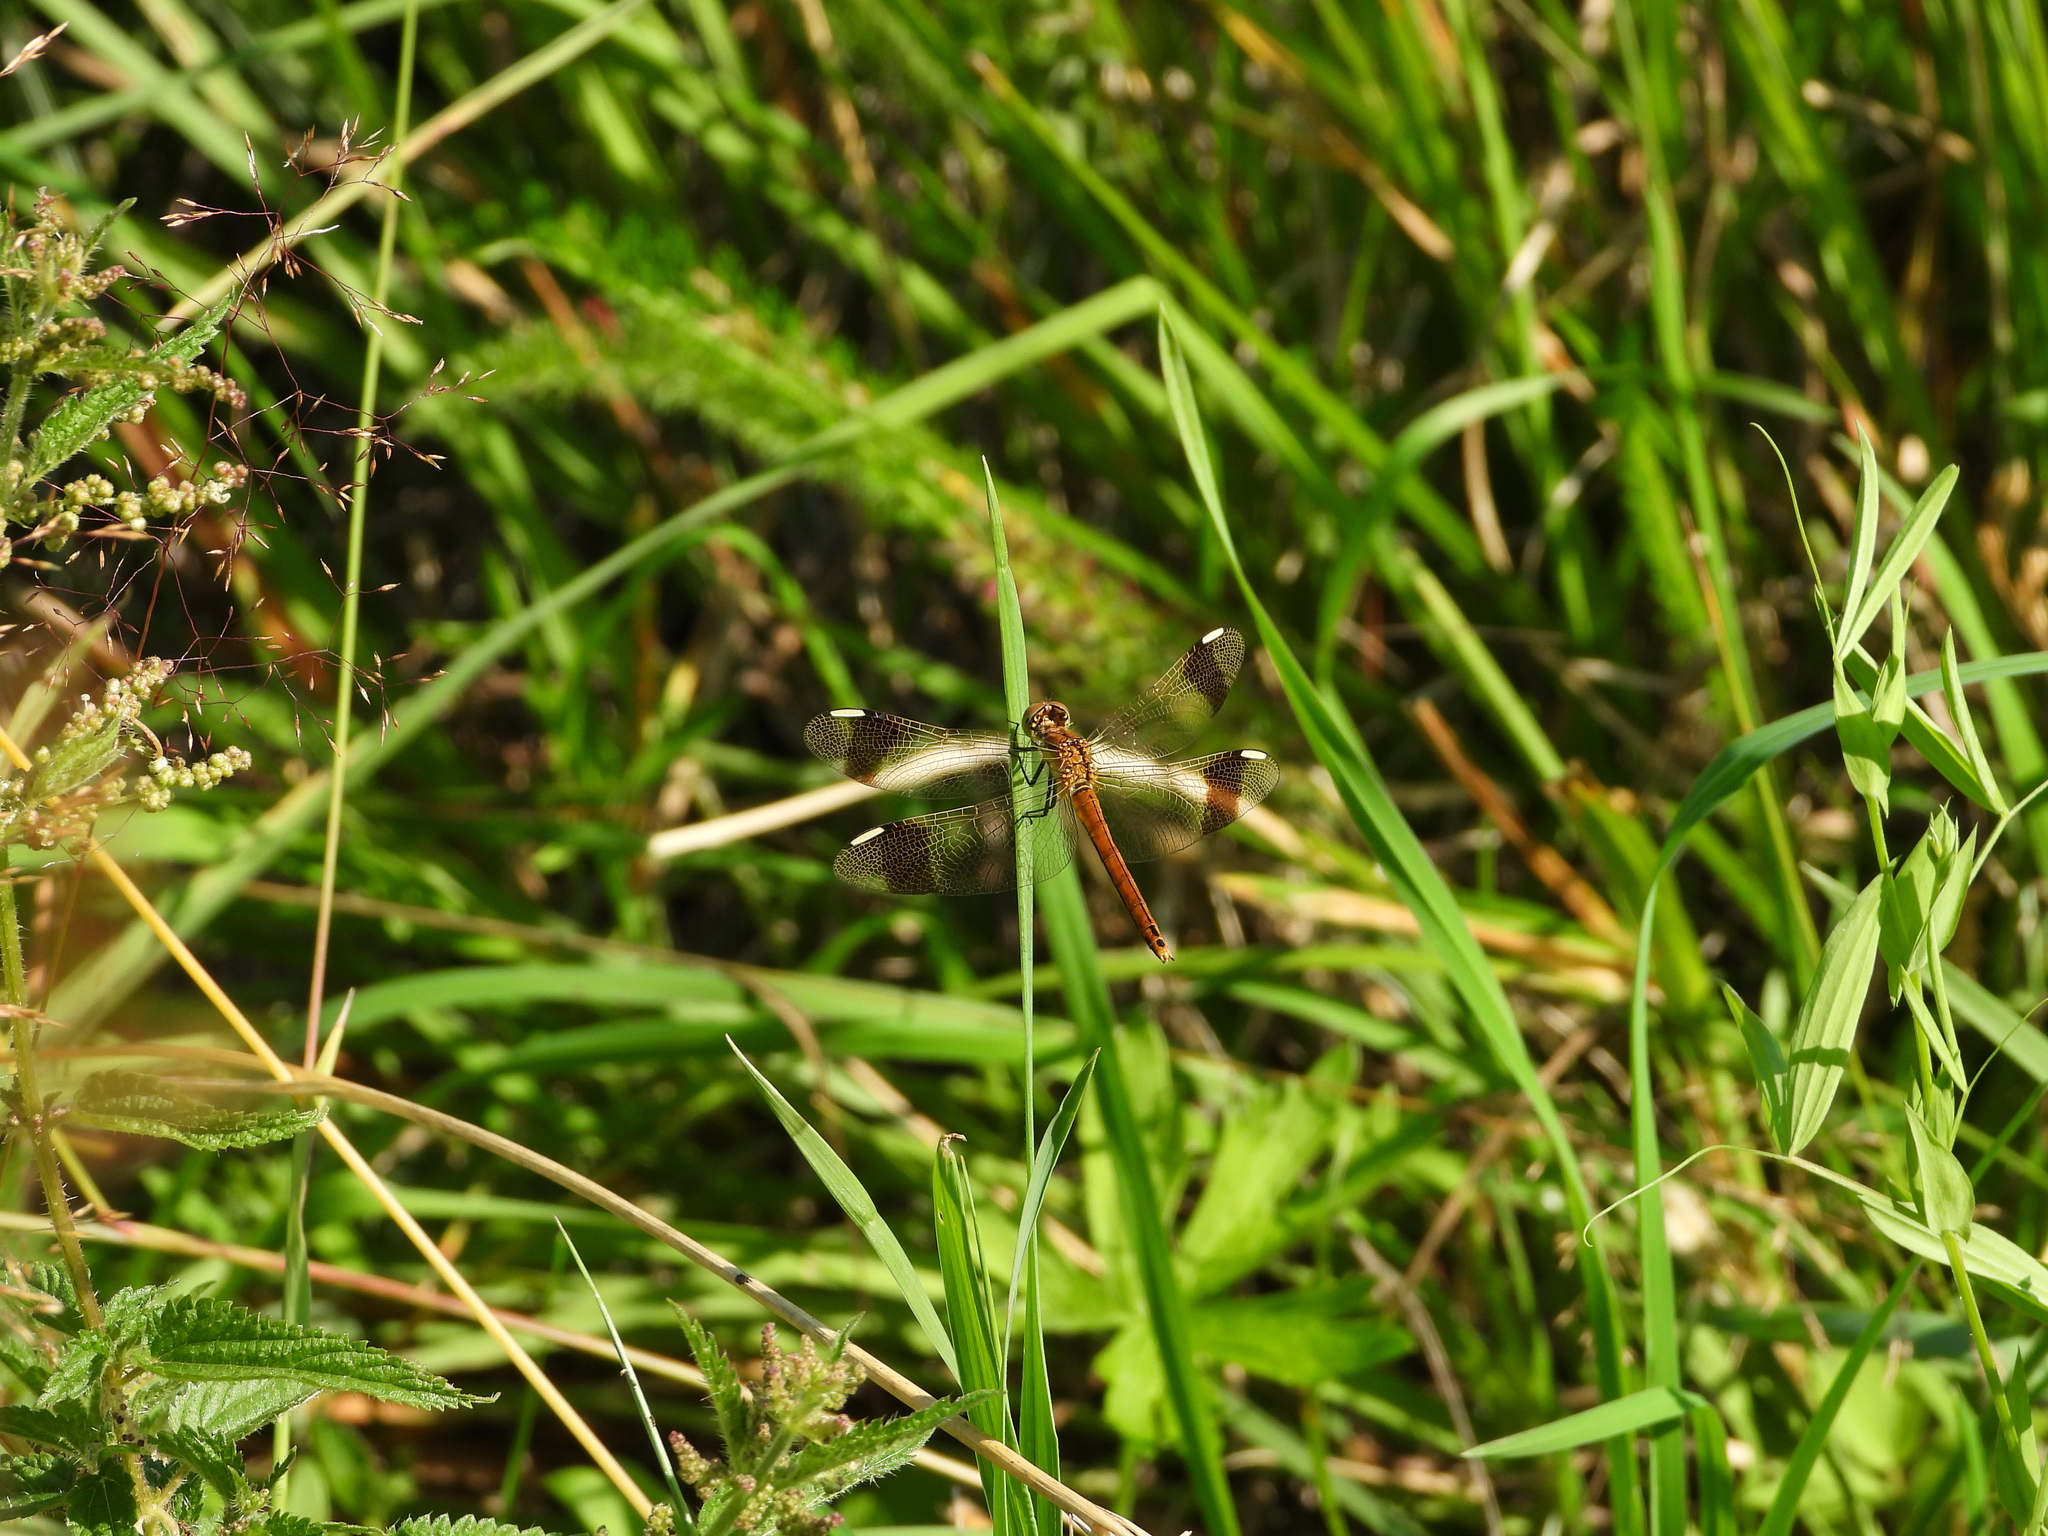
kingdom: Animalia
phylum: Arthropoda
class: Insecta
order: Odonata
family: Libellulidae
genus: Sympetrum
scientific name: Sympetrum pedemontanum
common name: Banded darter
